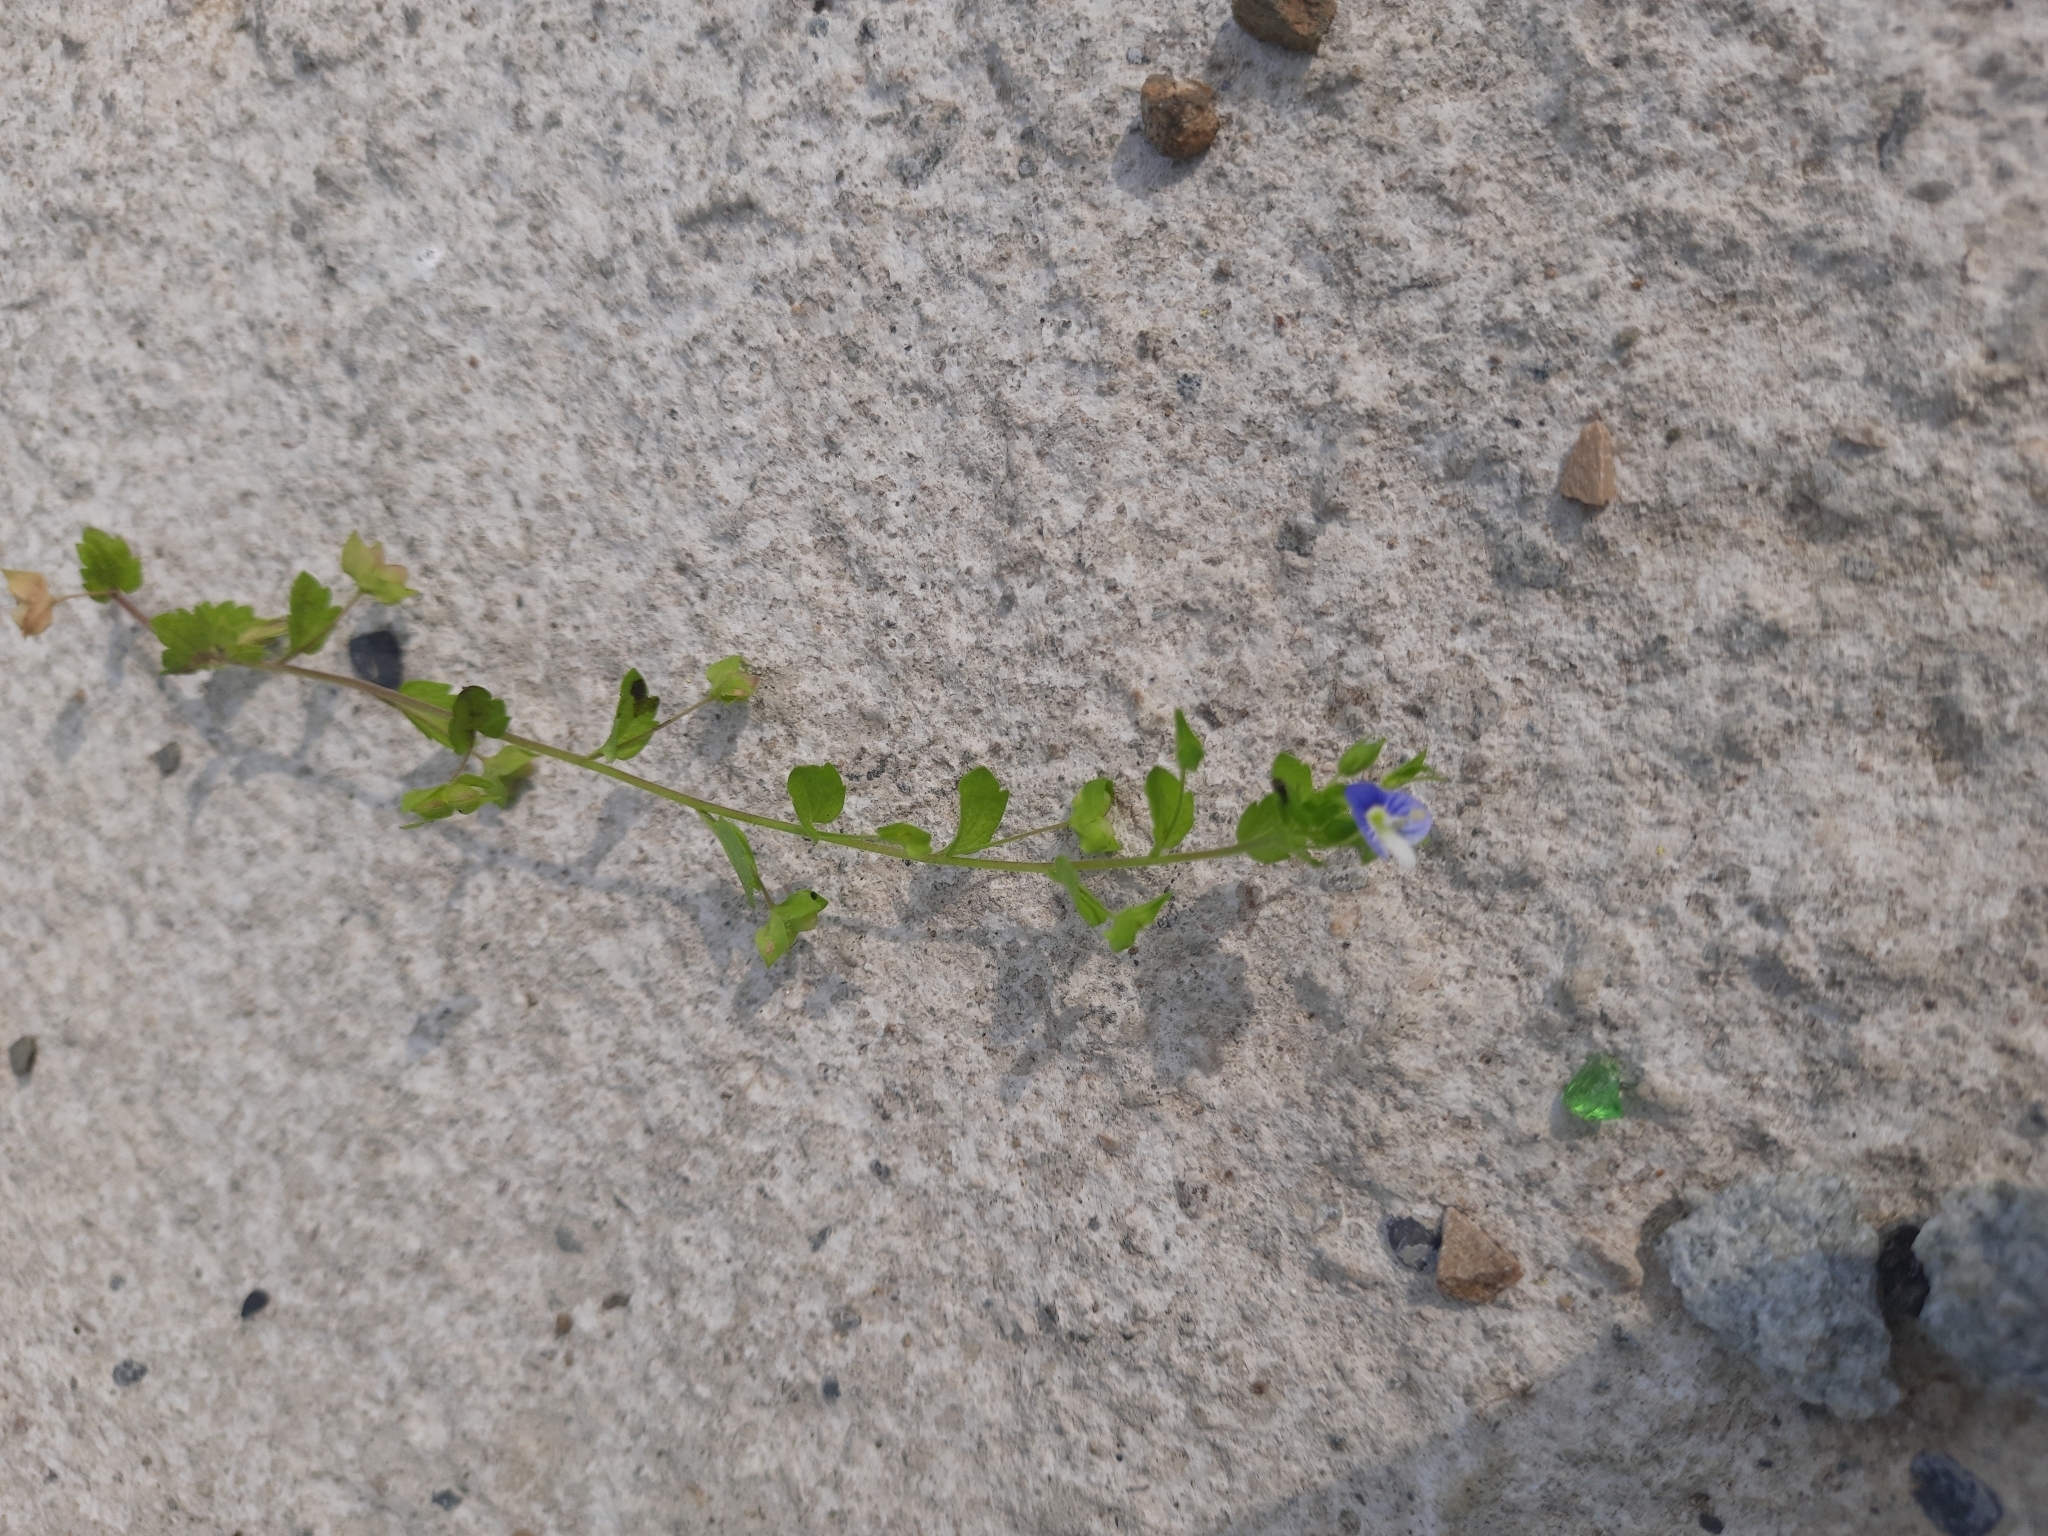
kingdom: Plantae
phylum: Tracheophyta
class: Magnoliopsida
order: Lamiales
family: Plantaginaceae
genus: Veronica
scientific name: Veronica persica
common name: Common field-speedwell
